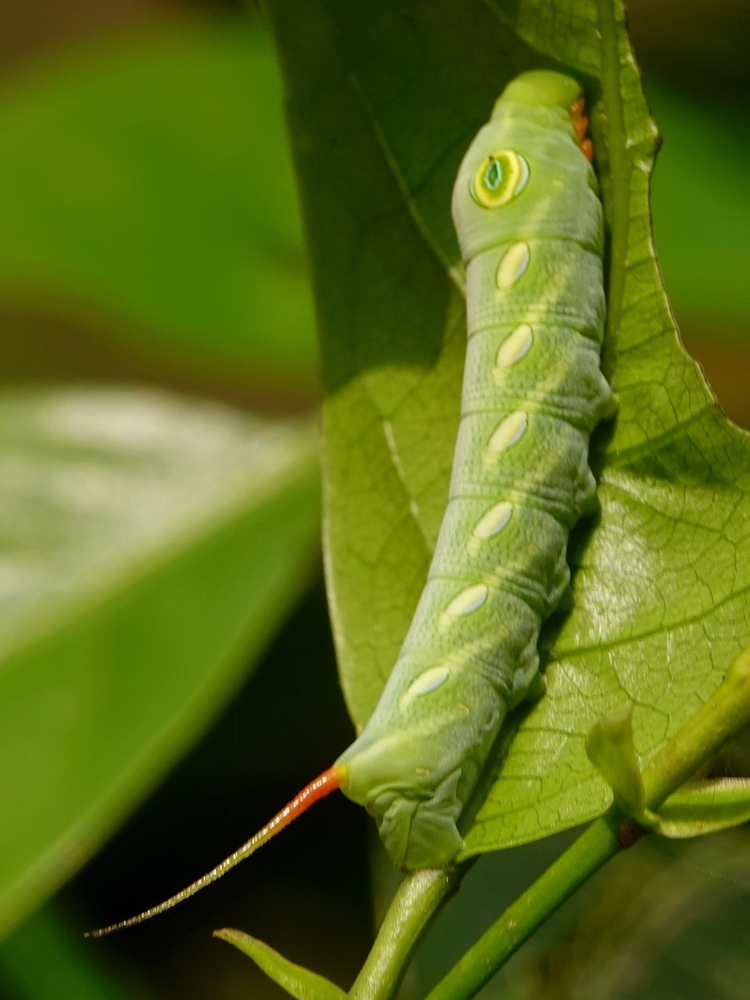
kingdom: Animalia
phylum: Arthropoda
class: Insecta
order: Lepidoptera
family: Sphingidae
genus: Theretra
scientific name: Theretra pallicosta
